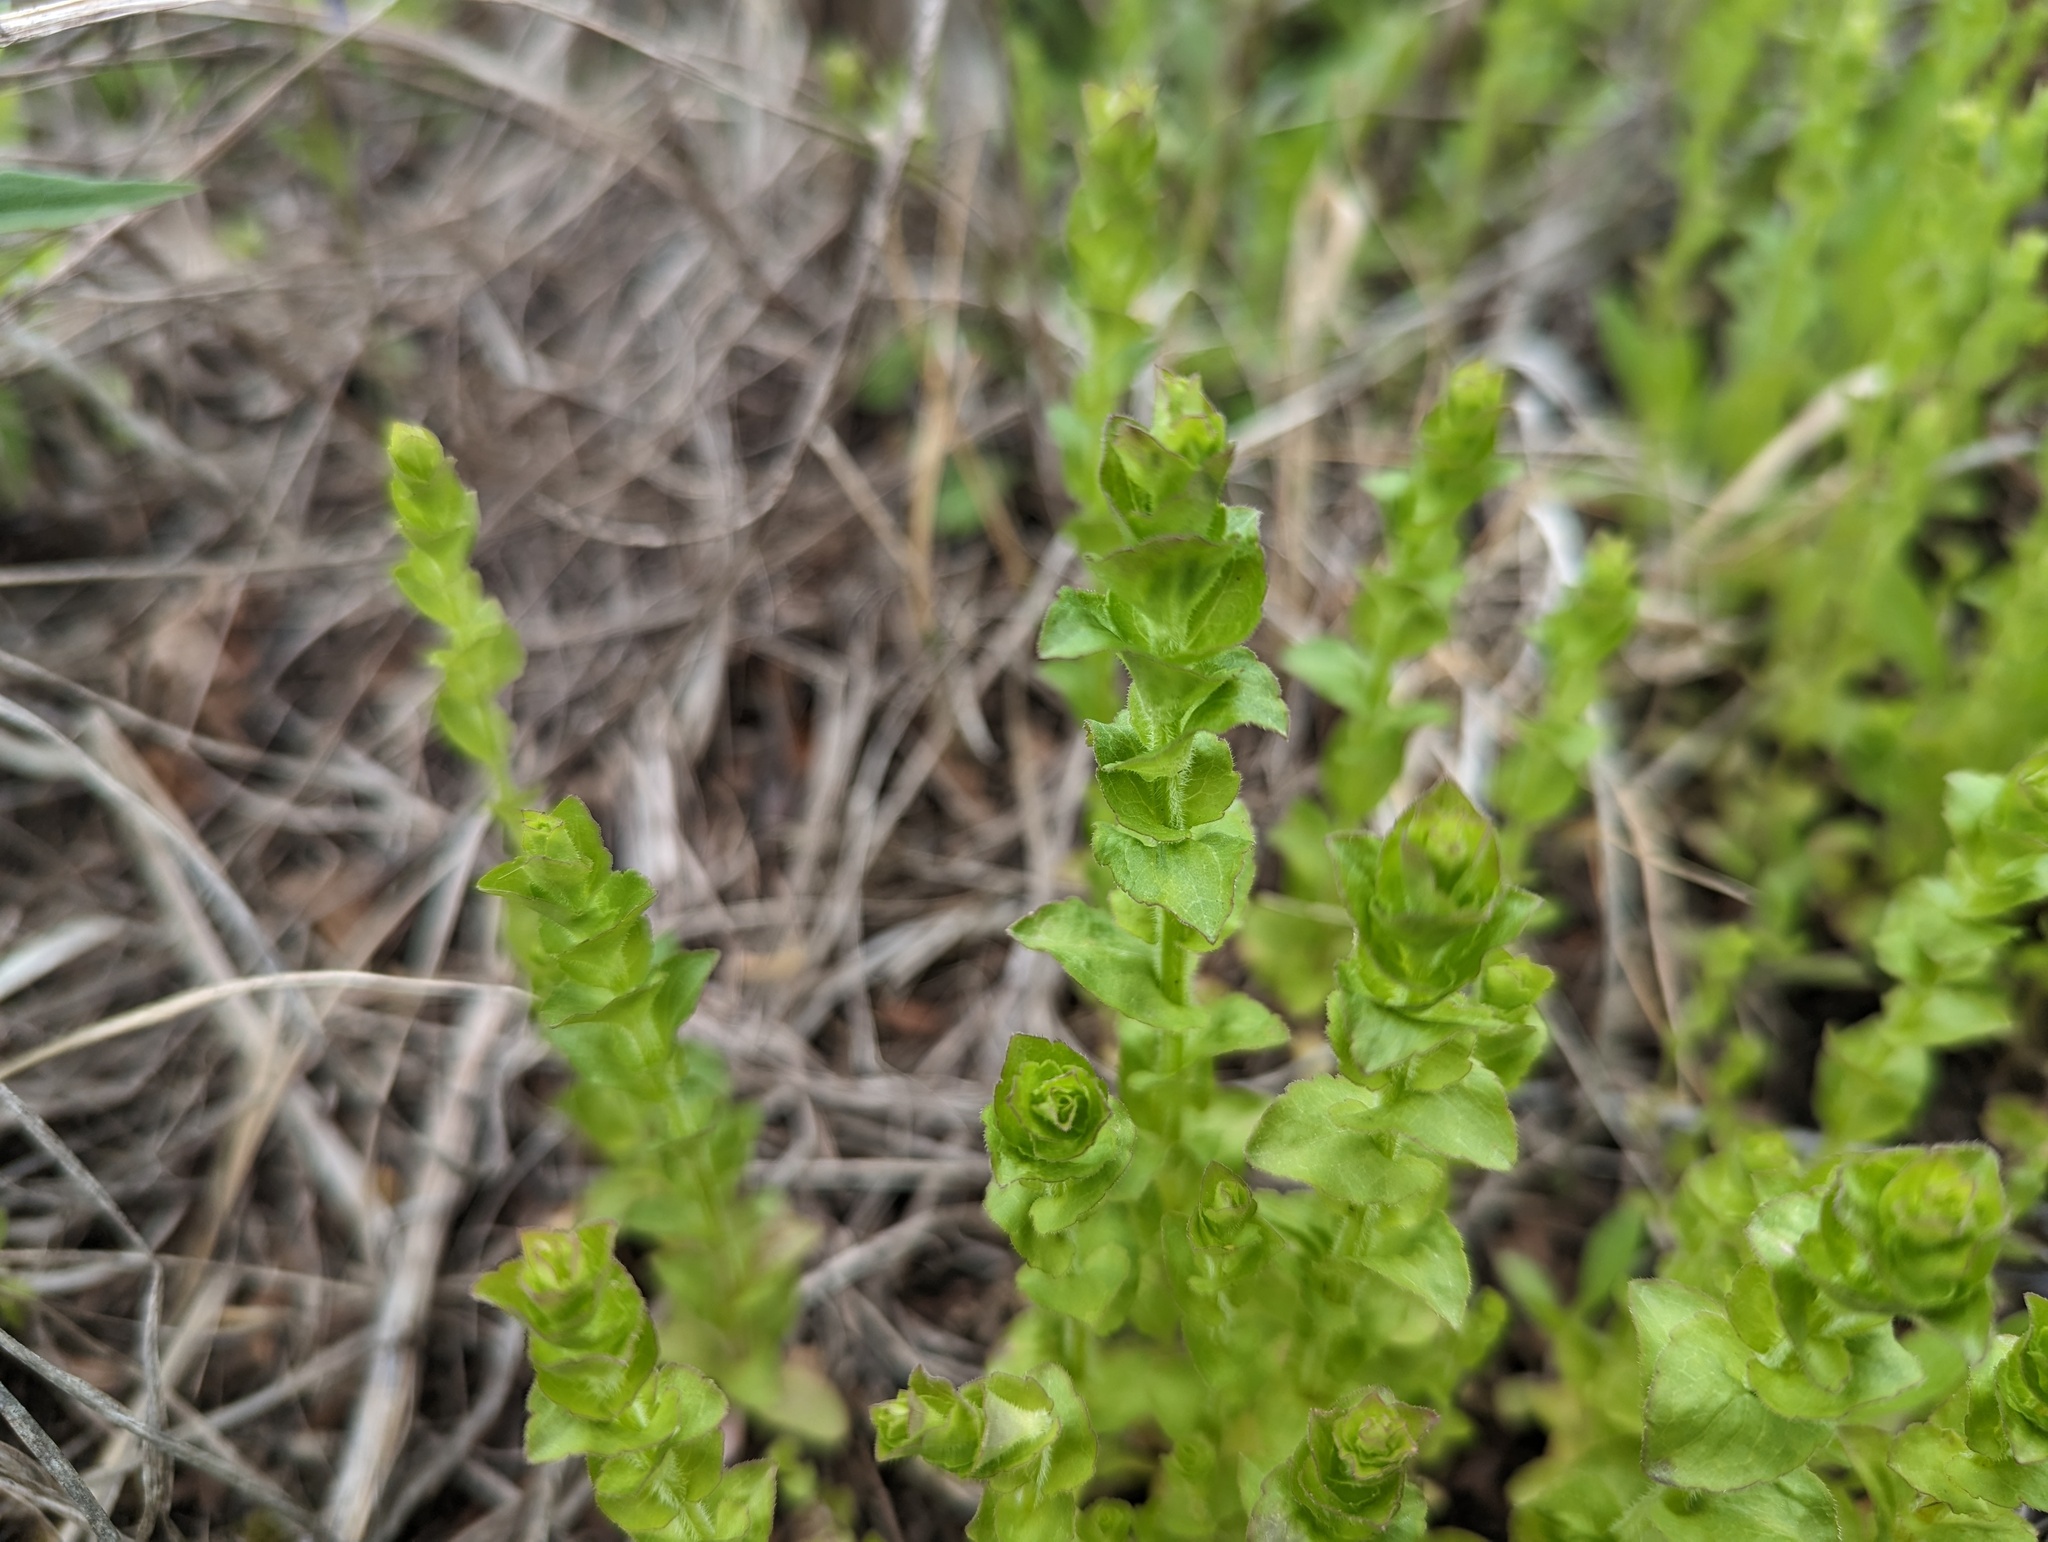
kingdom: Plantae
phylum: Tracheophyta
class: Magnoliopsida
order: Asterales
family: Campanulaceae
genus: Triodanis
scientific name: Triodanis perfoliata
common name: Clasping venus' looking-glass
